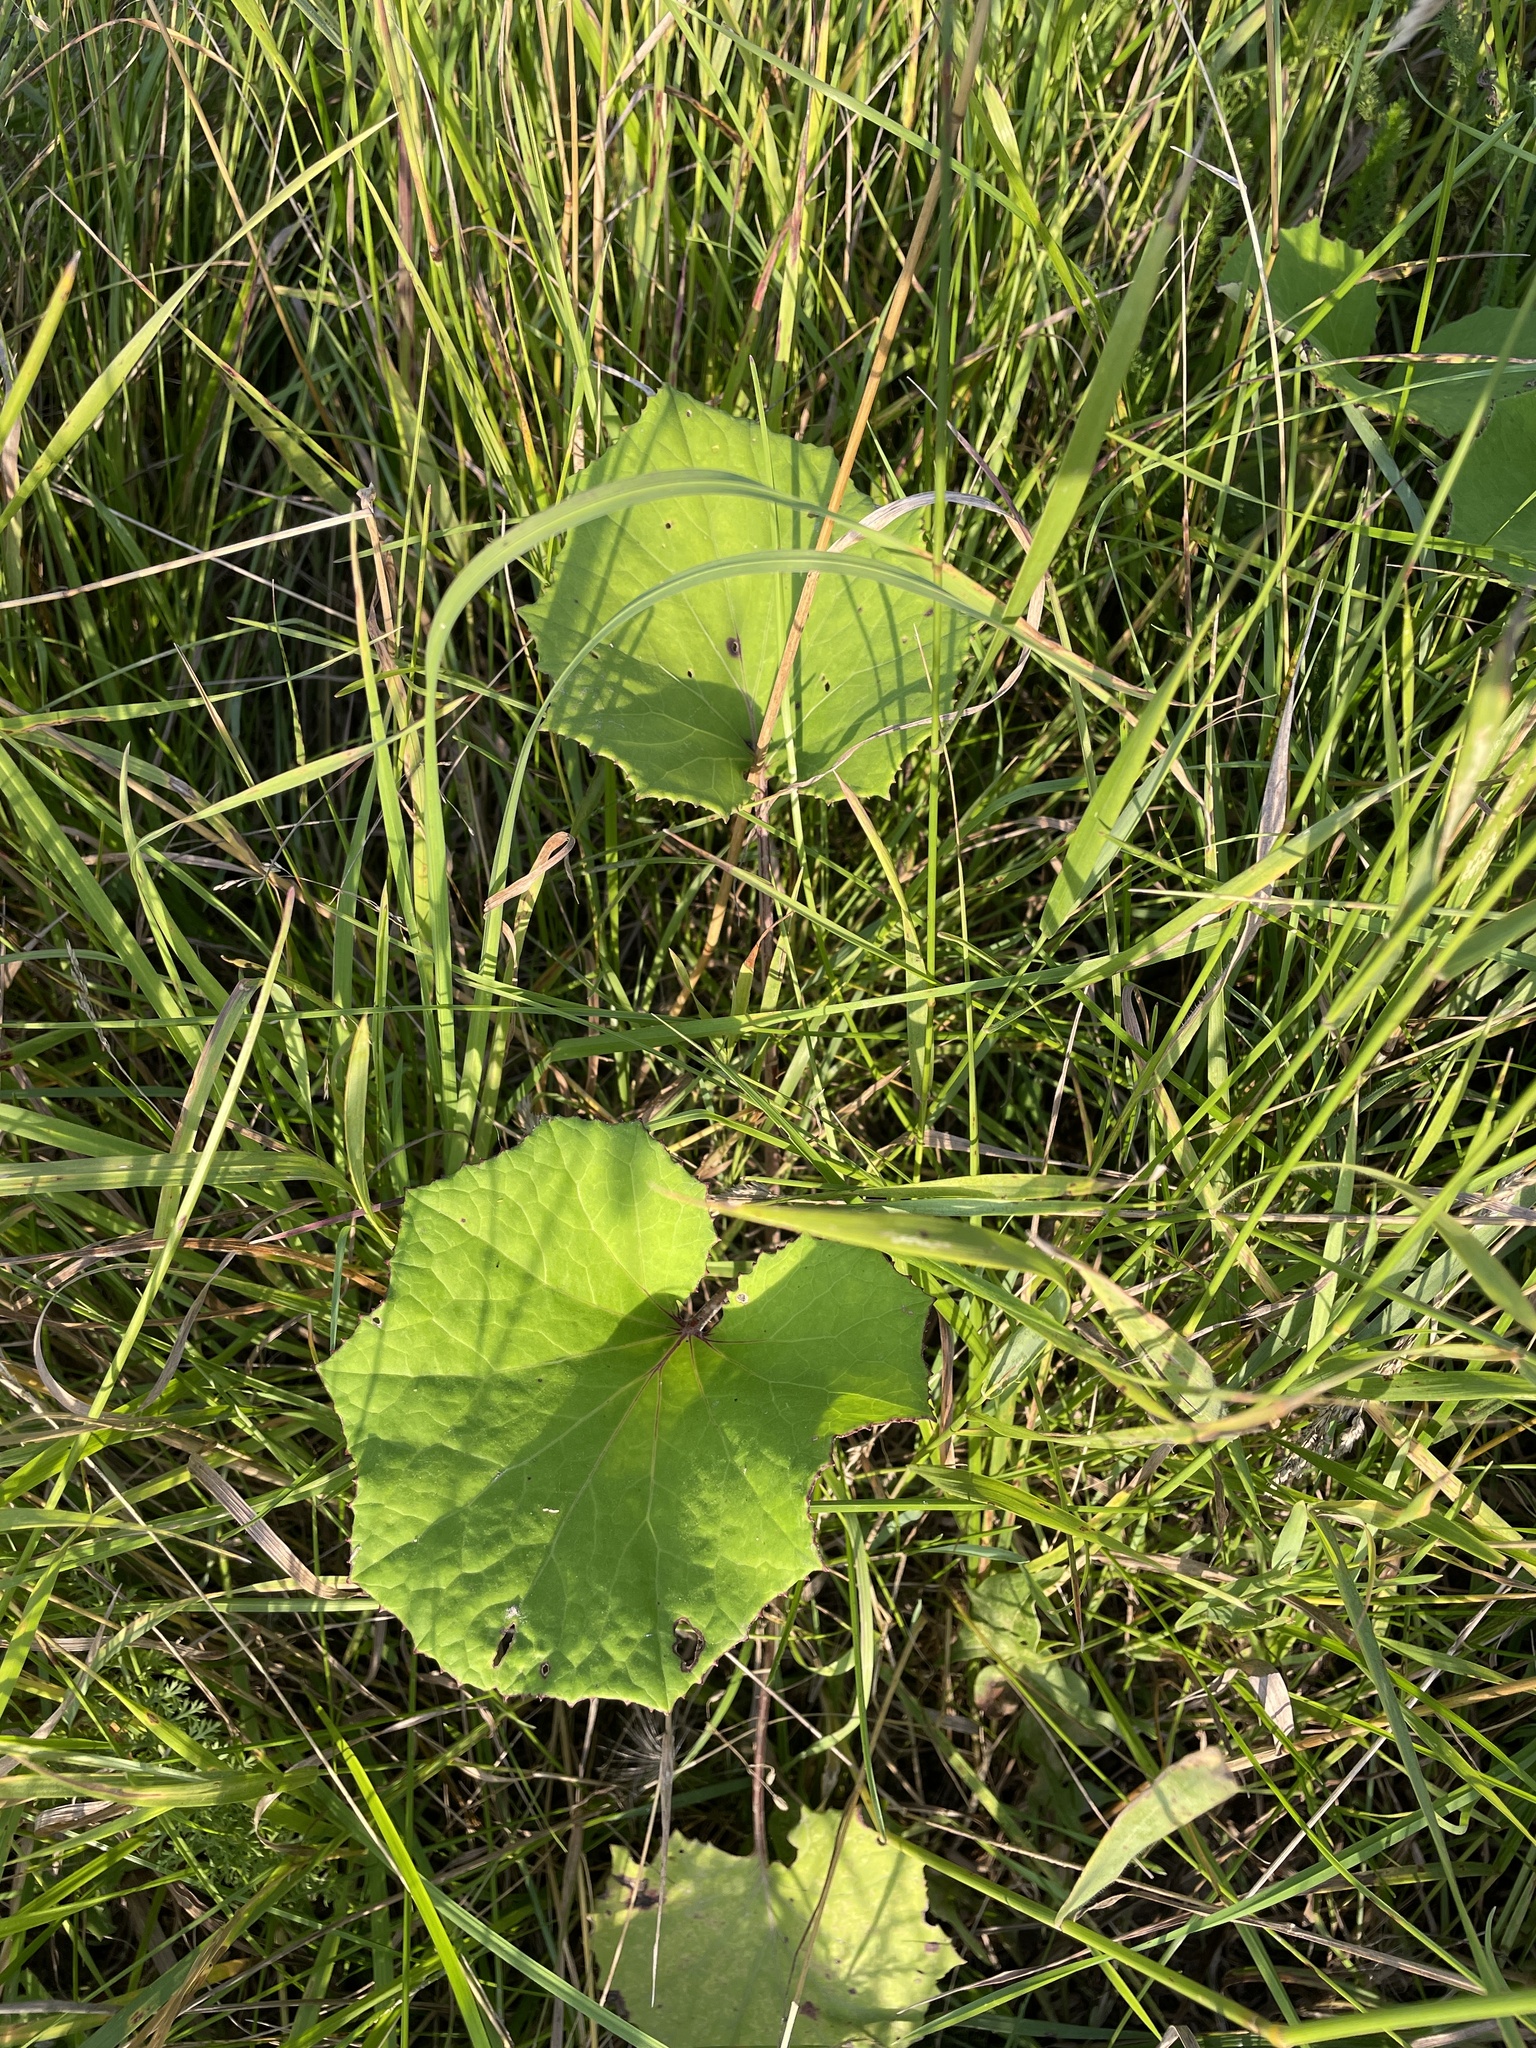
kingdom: Plantae
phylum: Tracheophyta
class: Magnoliopsida
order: Asterales
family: Asteraceae
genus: Tussilago
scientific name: Tussilago farfara
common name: Coltsfoot
